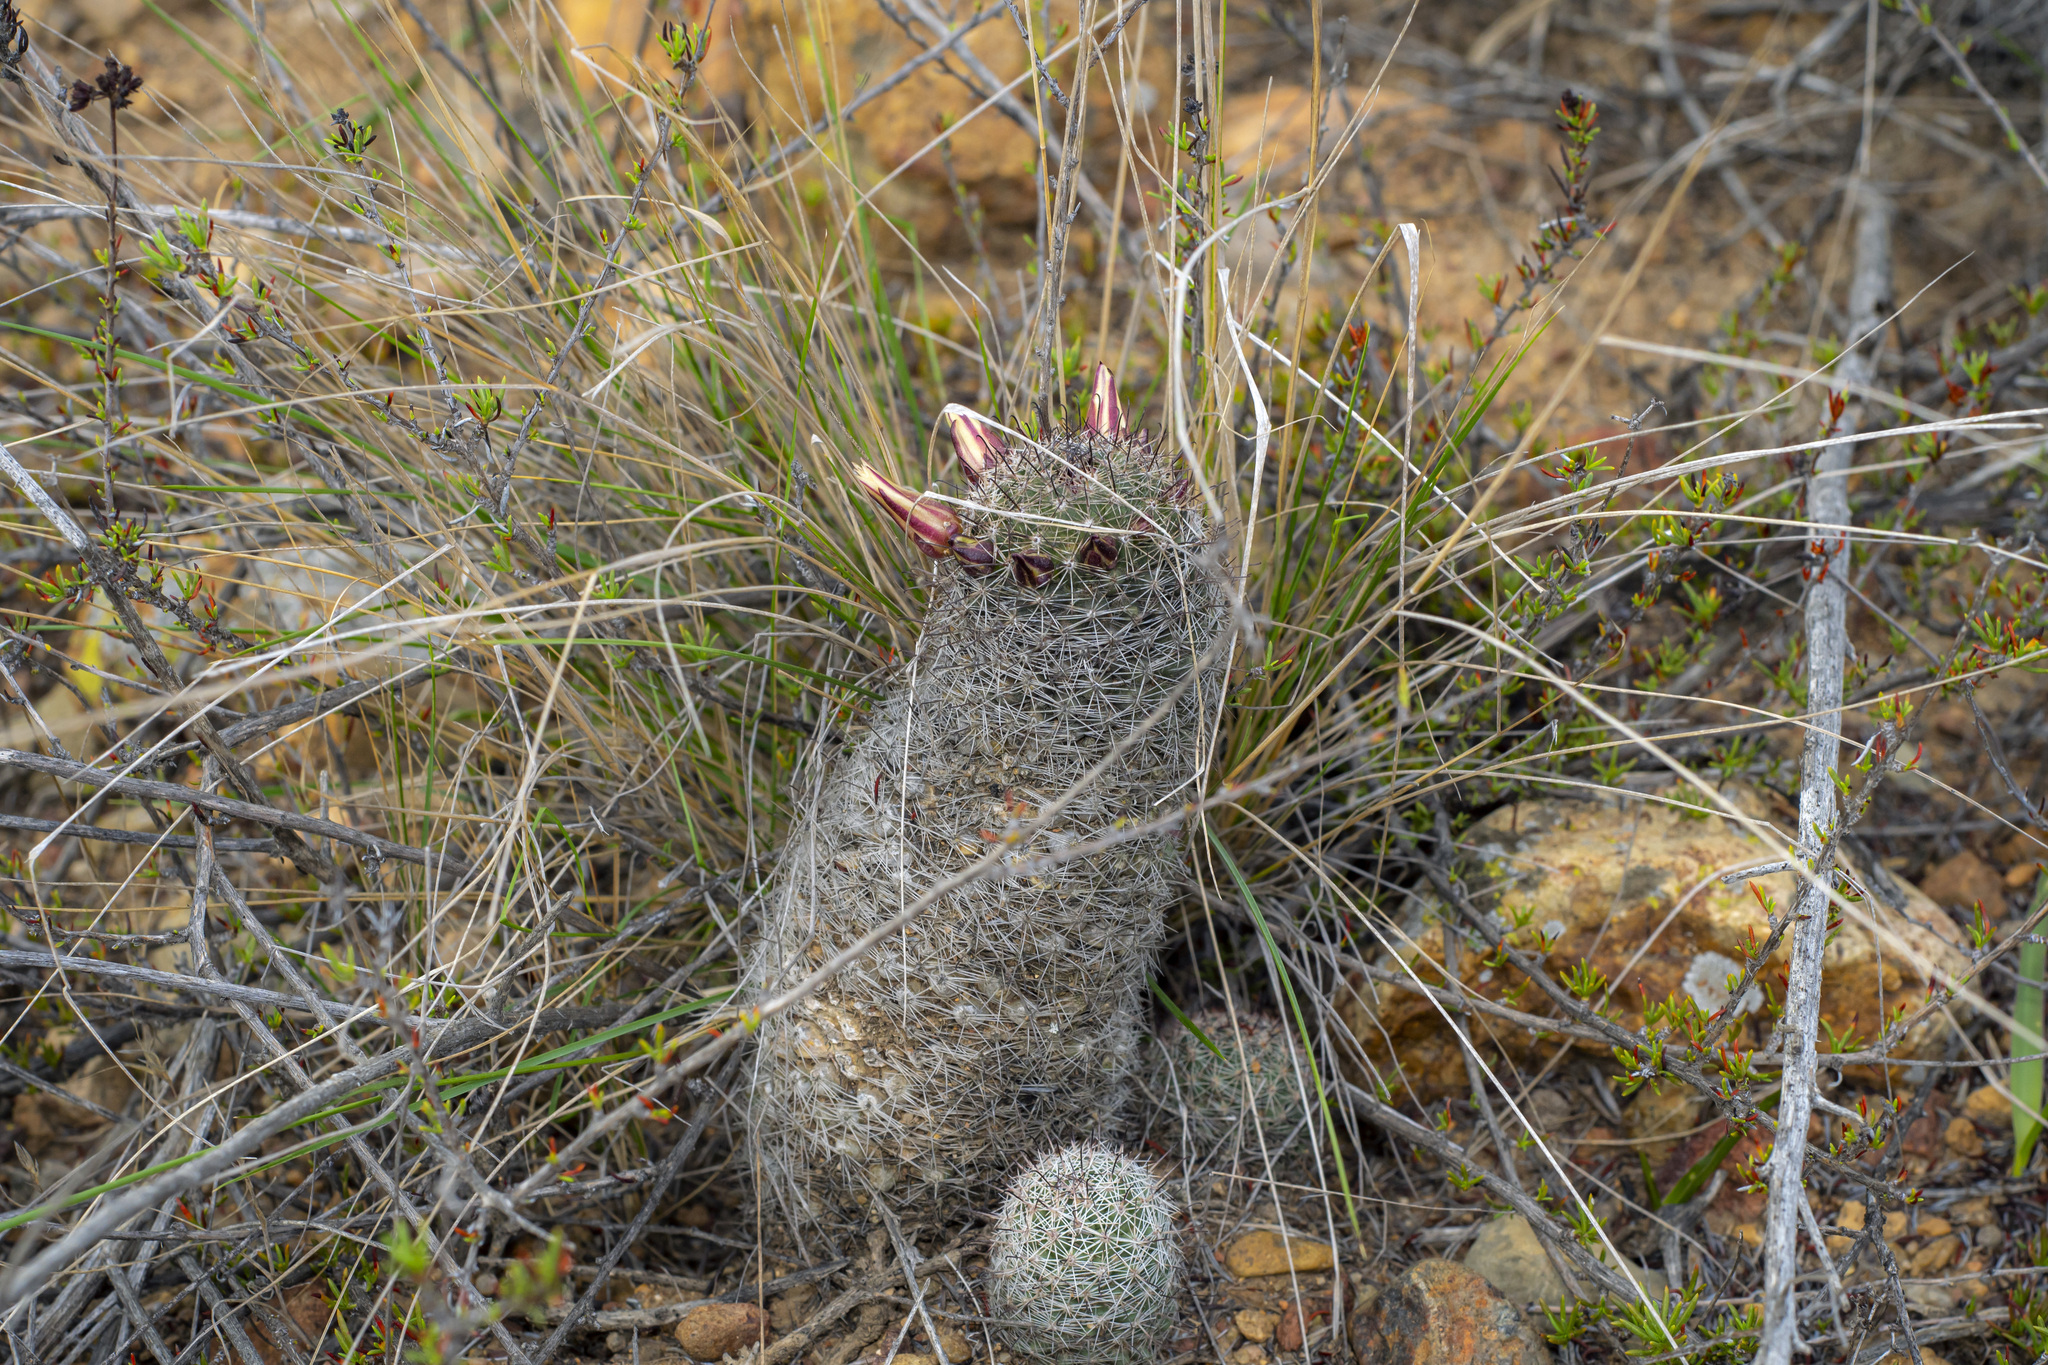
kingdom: Plantae
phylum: Tracheophyta
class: Magnoliopsida
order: Caryophyllales
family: Cactaceae
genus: Cochemiea
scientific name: Cochemiea dioica
